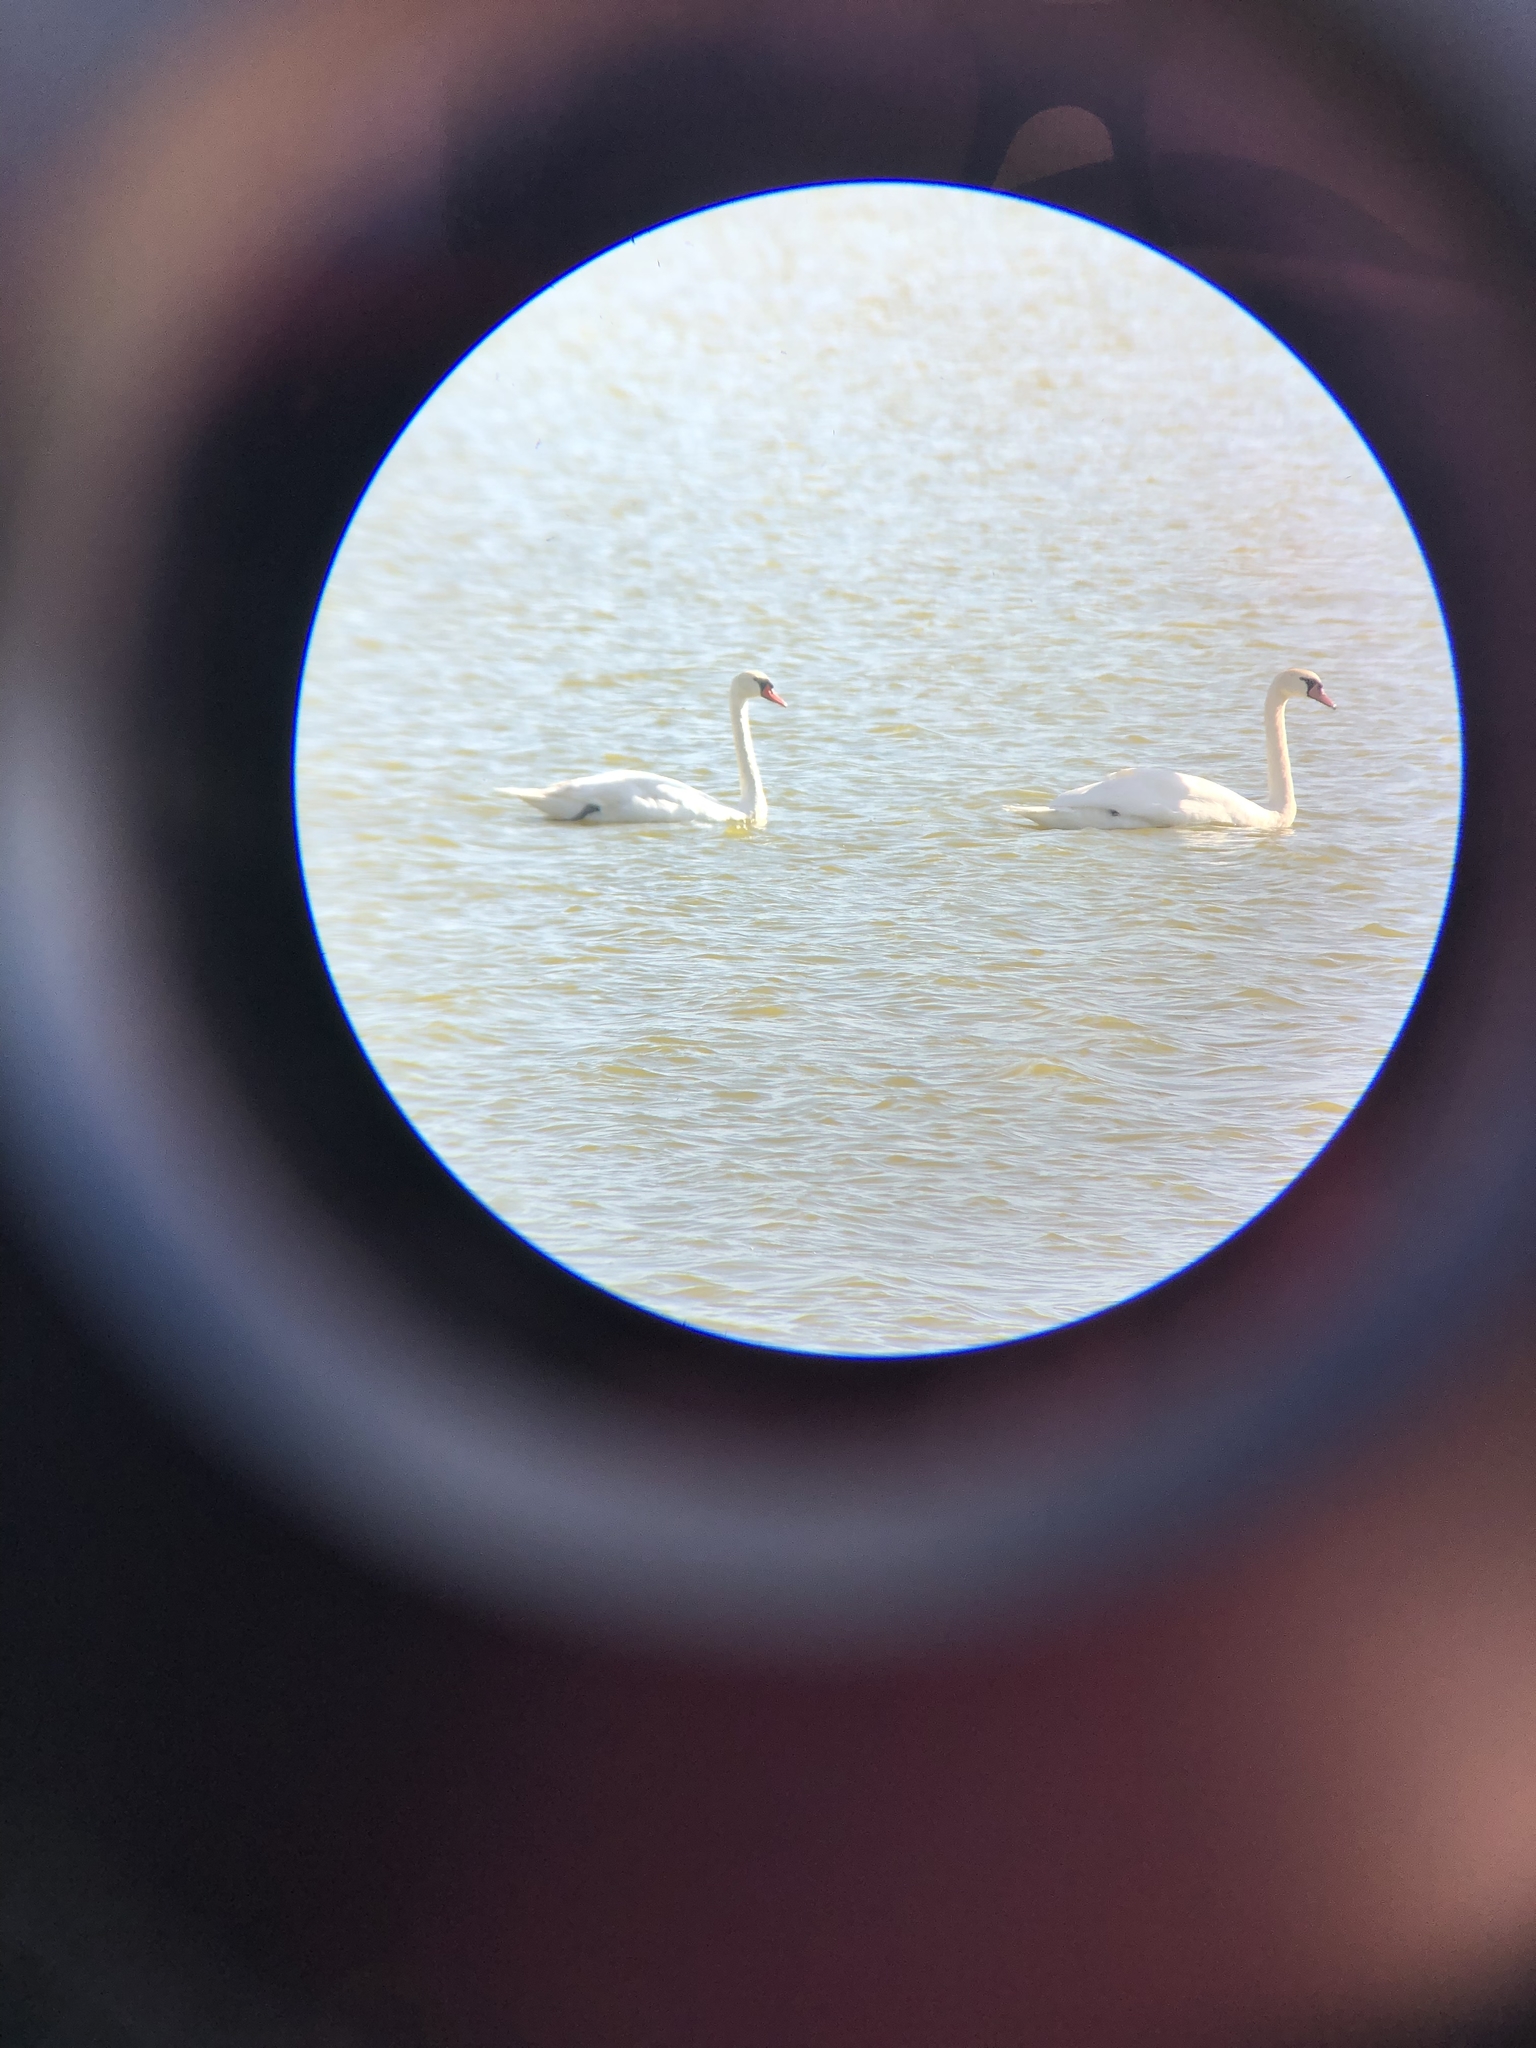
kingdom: Animalia
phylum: Chordata
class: Aves
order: Anseriformes
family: Anatidae
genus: Cygnus
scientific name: Cygnus olor
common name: Mute swan
